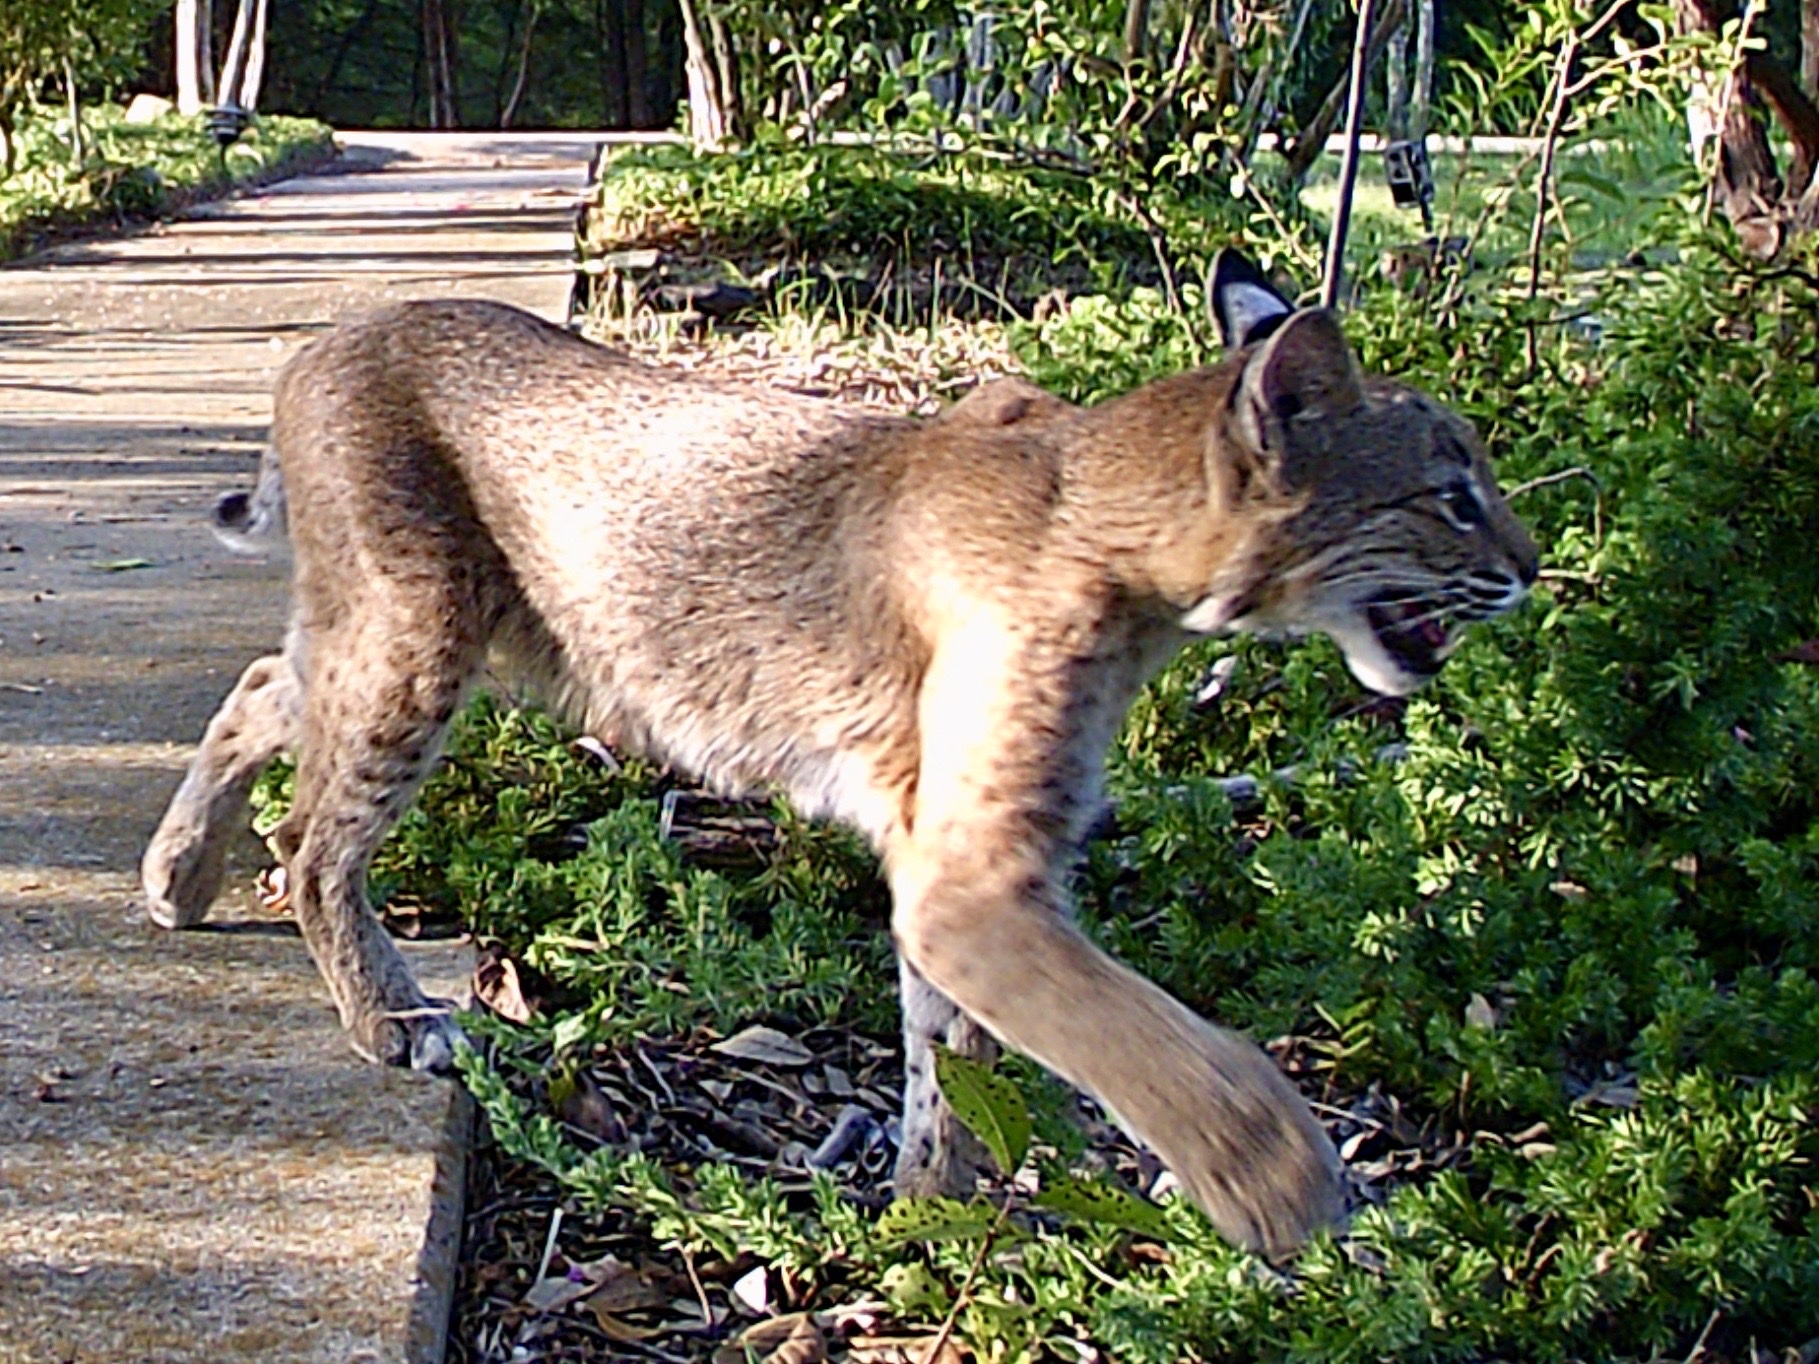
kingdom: Animalia
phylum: Chordata
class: Mammalia
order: Carnivora
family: Felidae
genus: Lynx
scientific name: Lynx rufus
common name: Bobcat
